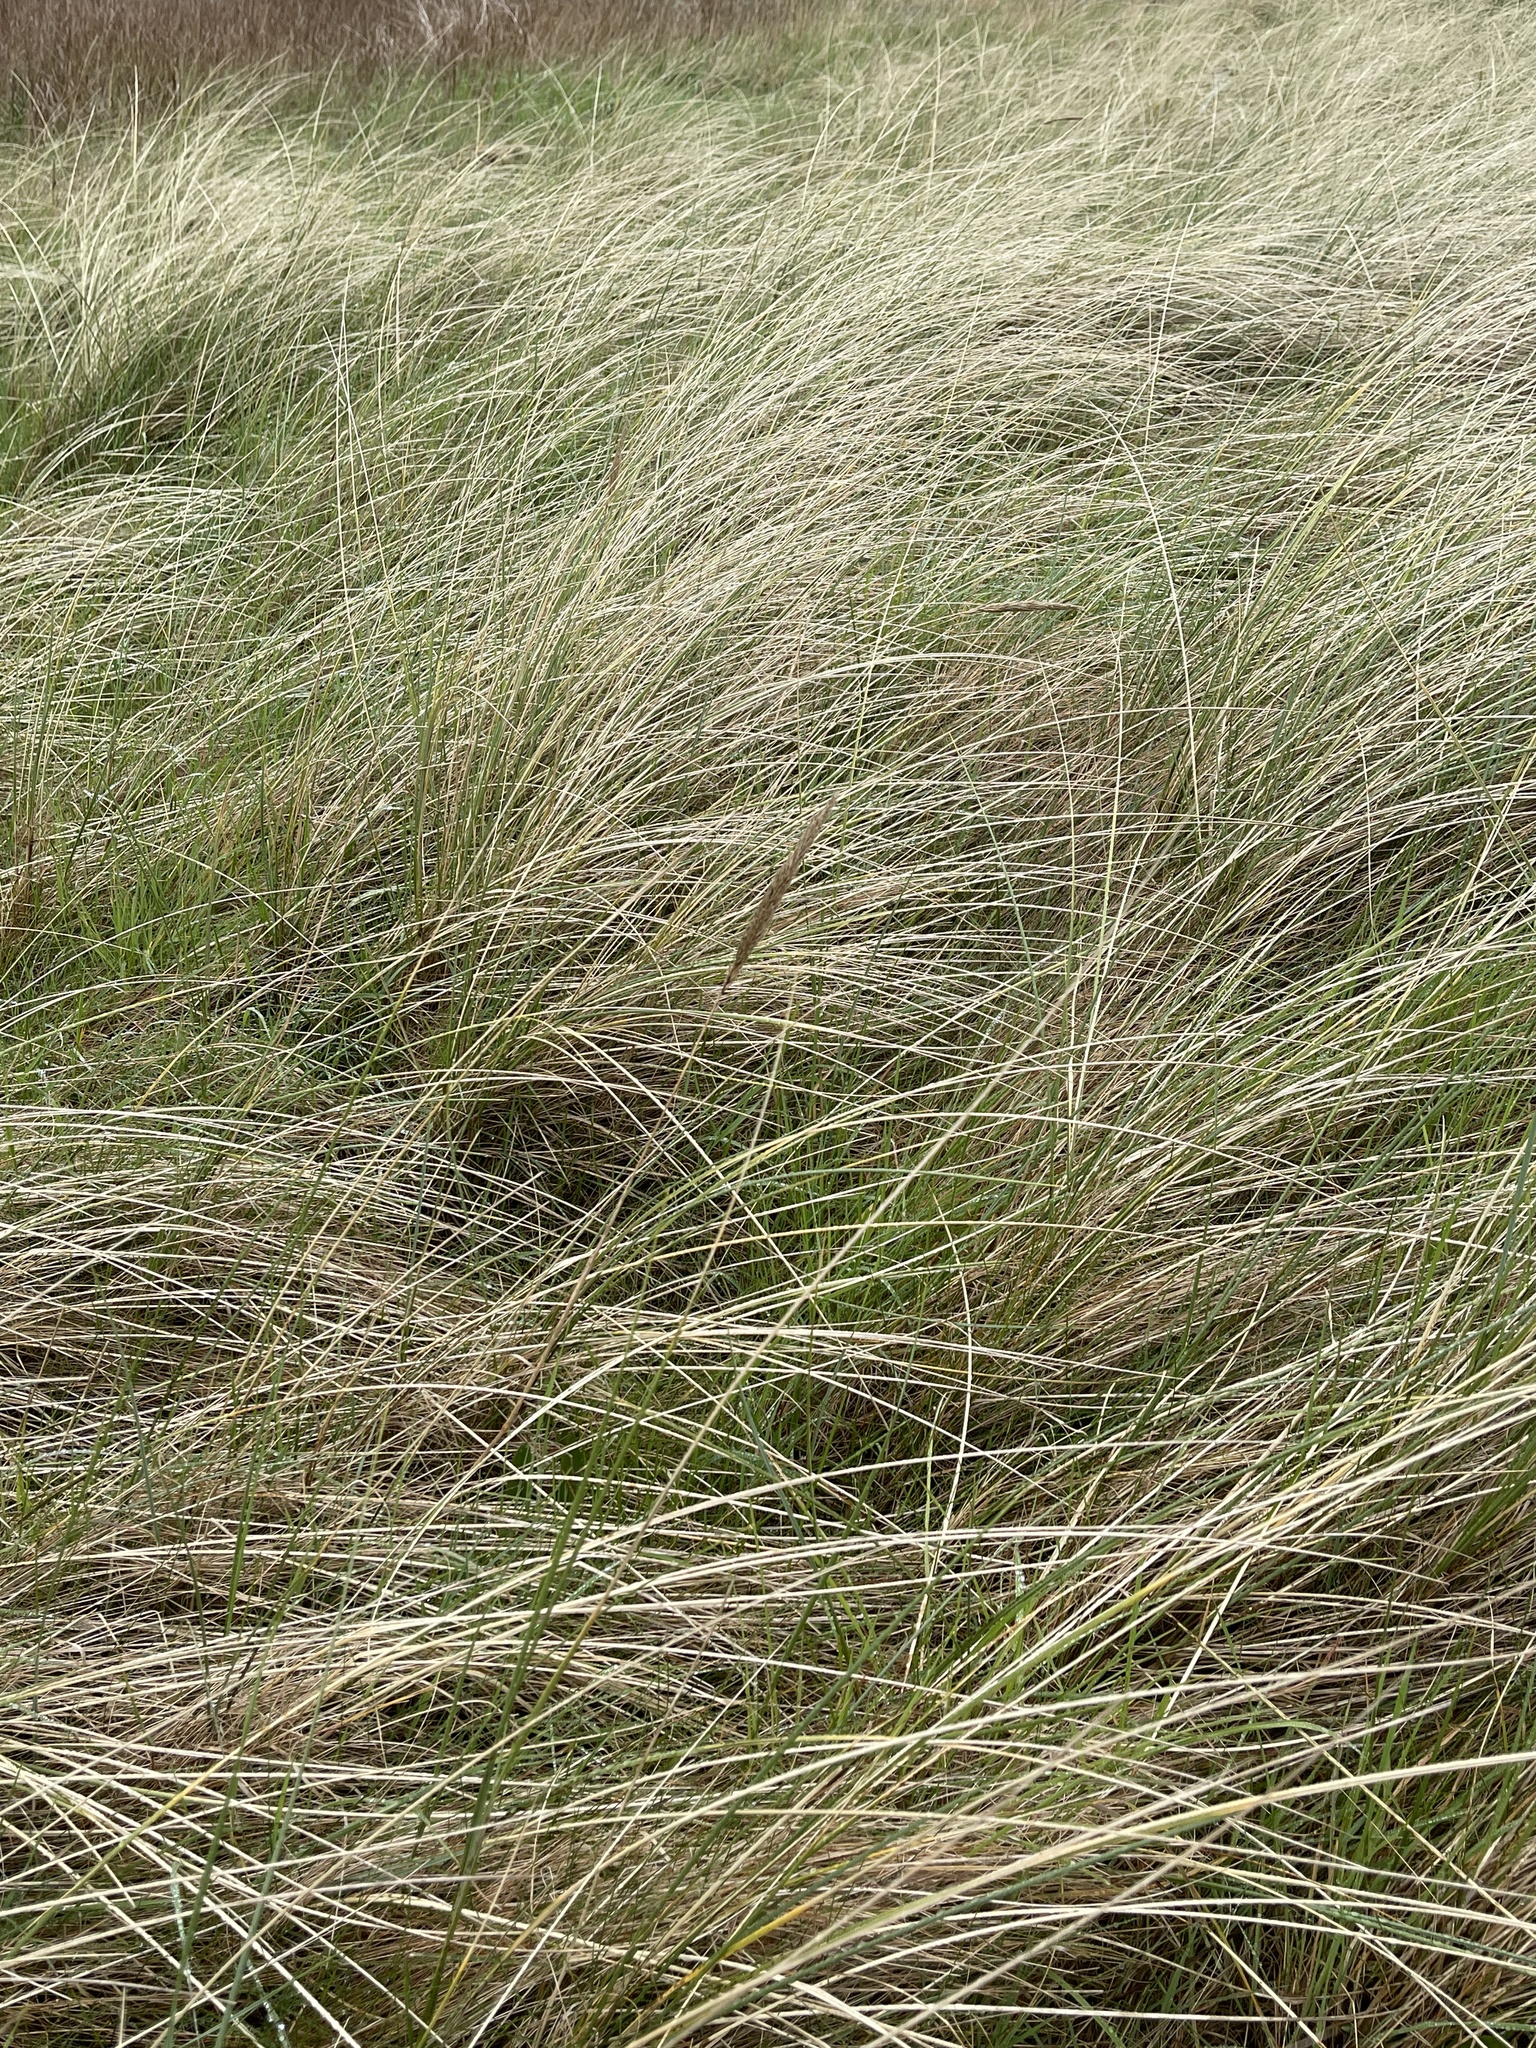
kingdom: Plantae
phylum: Tracheophyta
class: Liliopsida
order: Poales
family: Poaceae
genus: Calamagrostis
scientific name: Calamagrostis arenaria
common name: European beachgrass
